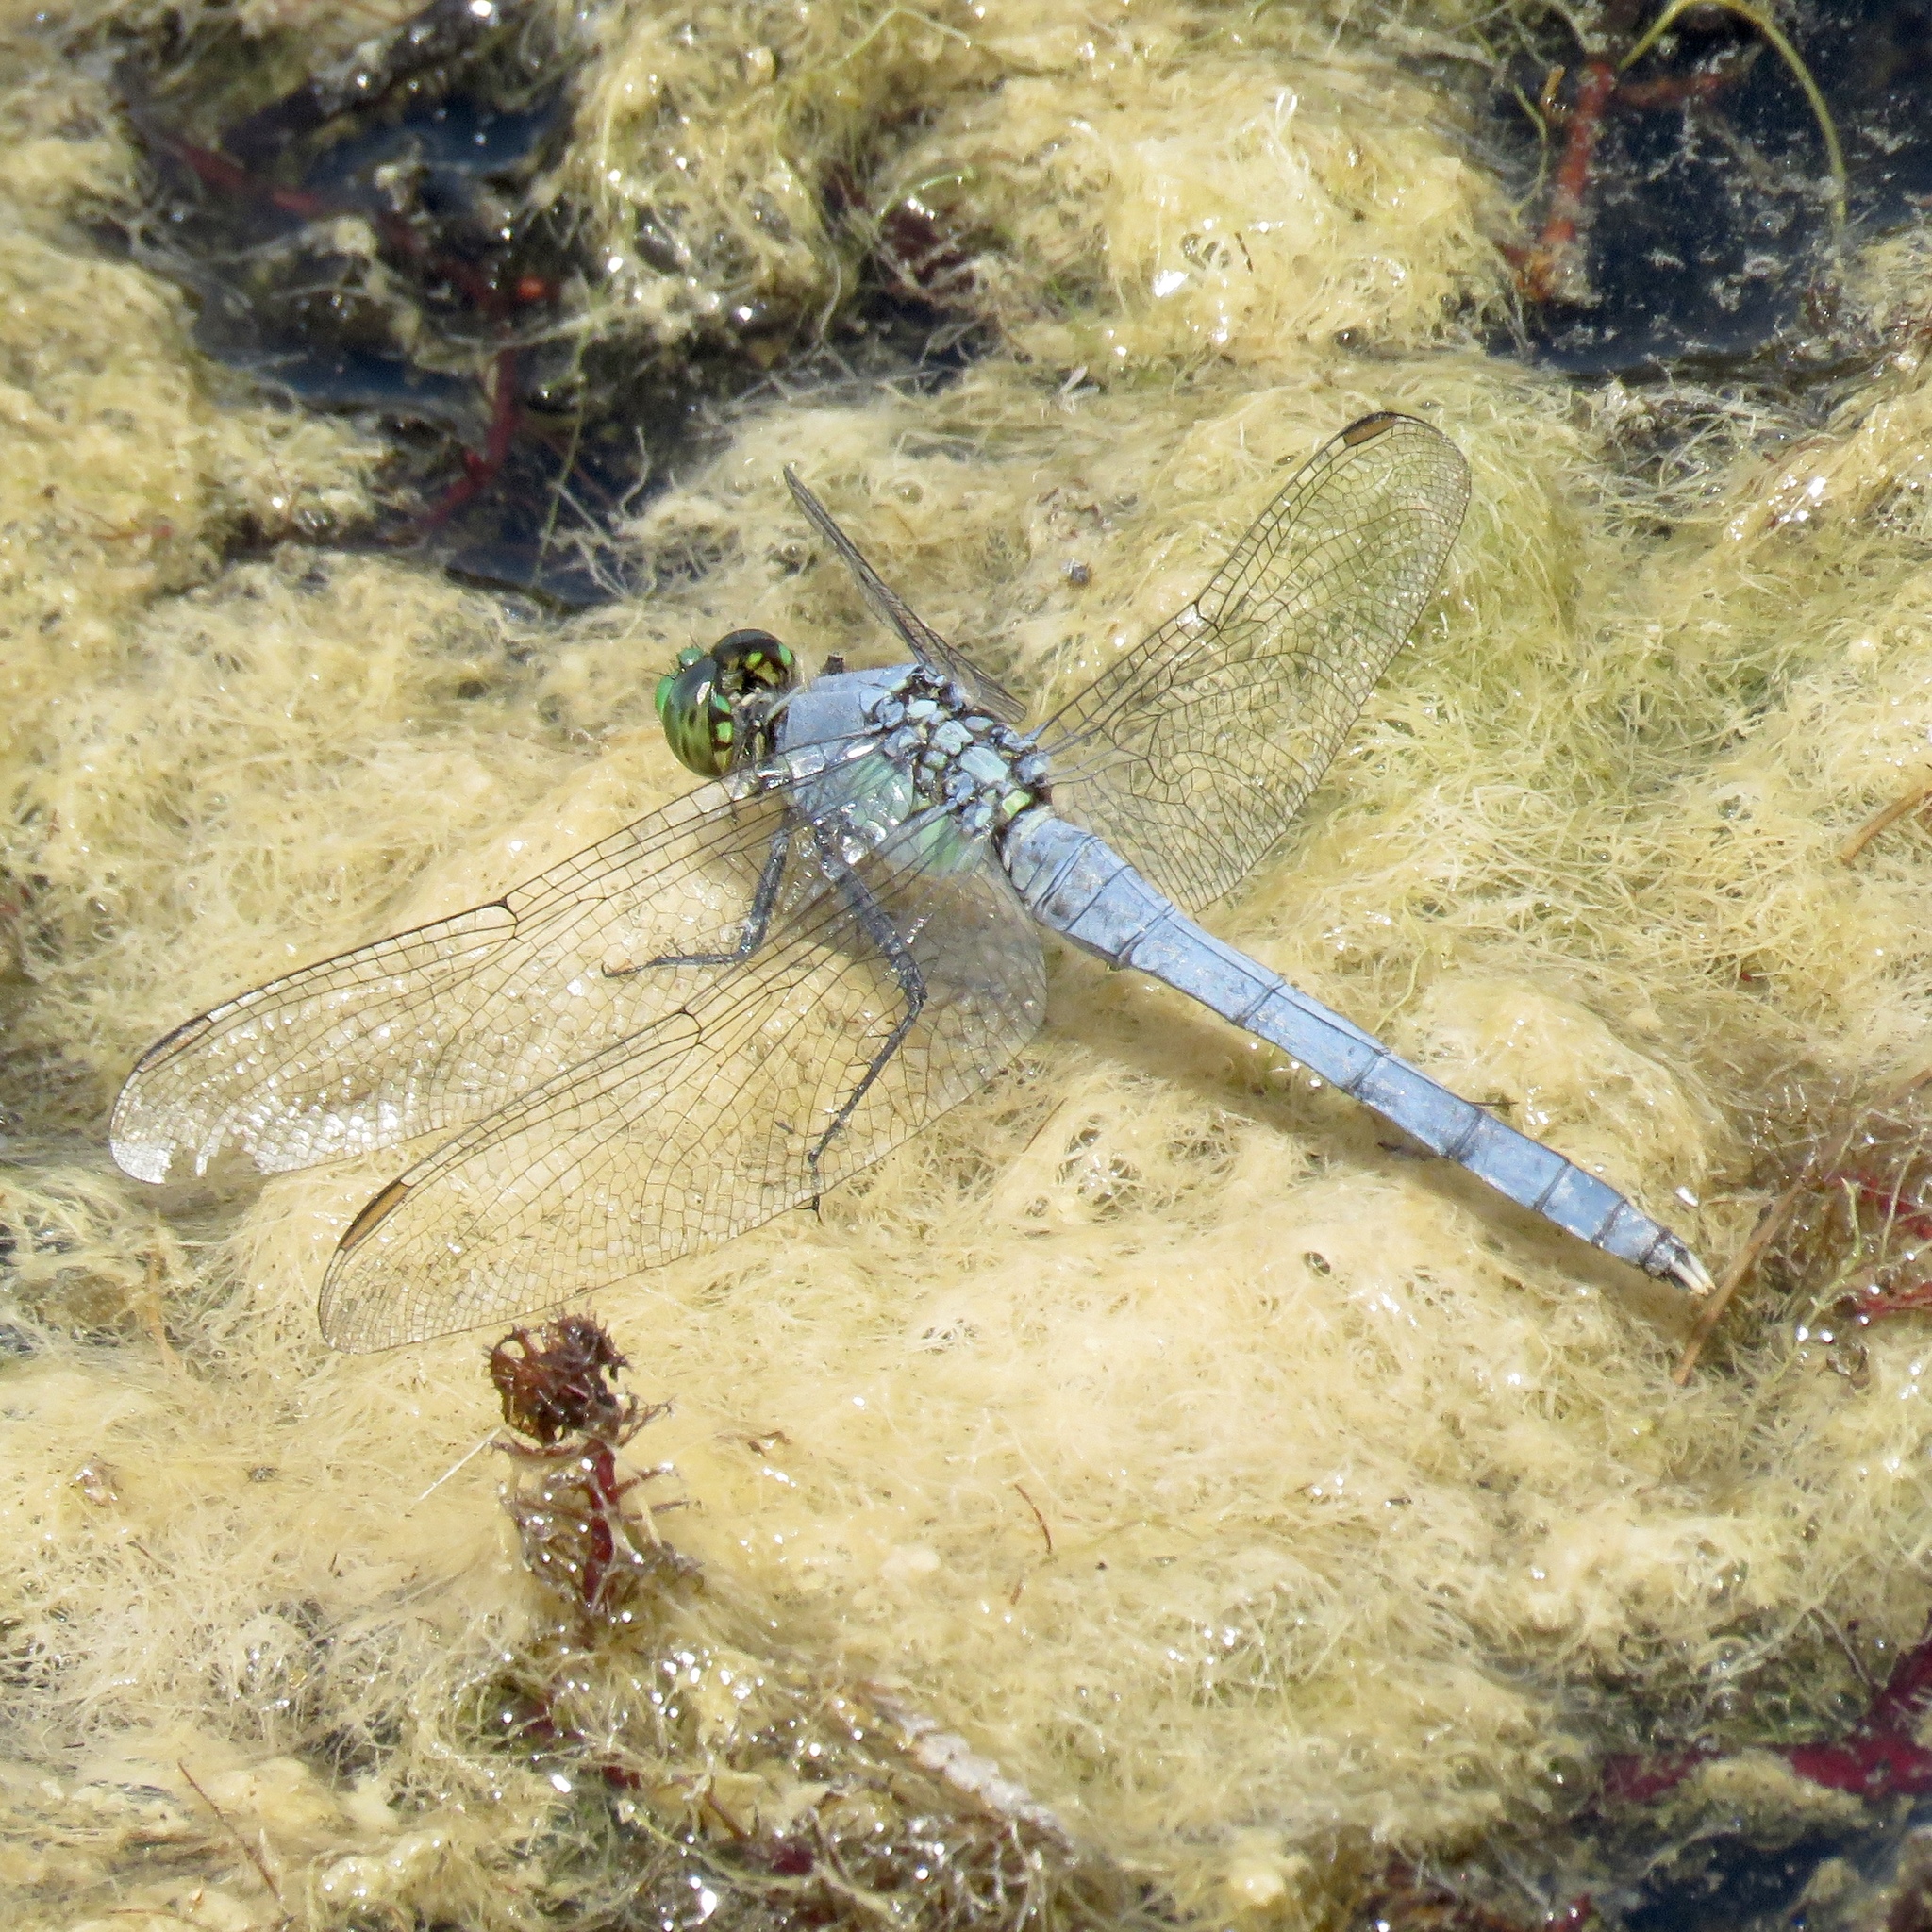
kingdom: Animalia
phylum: Arthropoda
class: Insecta
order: Odonata
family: Libellulidae
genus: Erythemis
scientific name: Erythemis simplicicollis
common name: Eastern pondhawk
